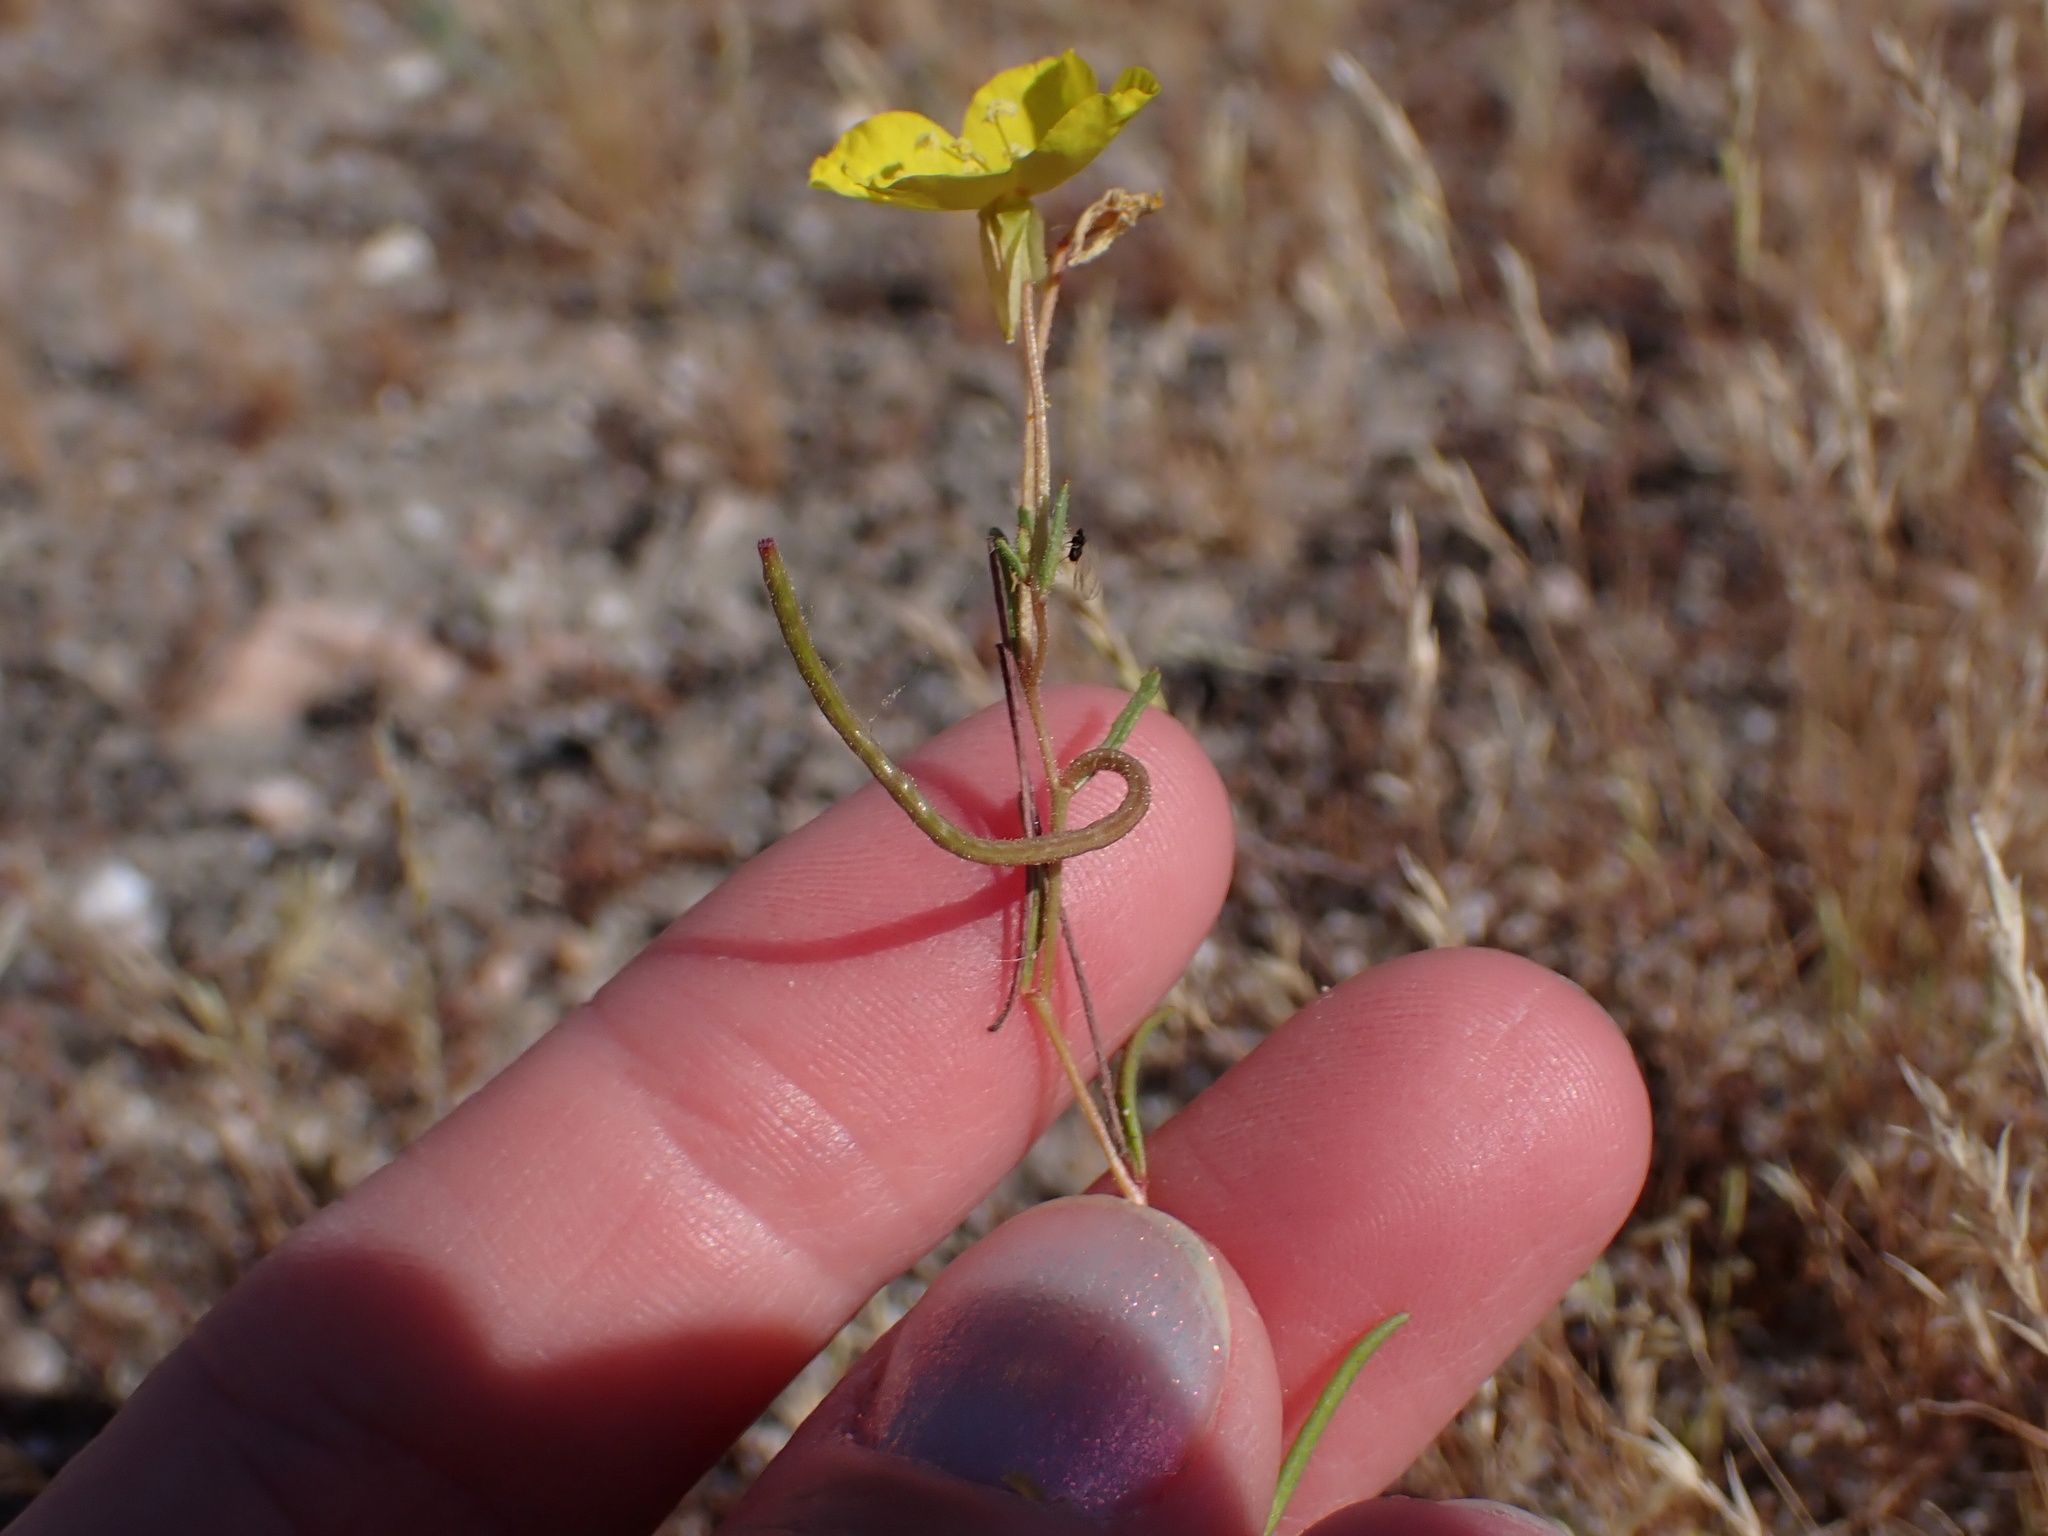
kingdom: Plantae
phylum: Tracheophyta
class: Magnoliopsida
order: Myrtales
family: Onagraceae
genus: Camissonia
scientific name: Camissonia campestris
